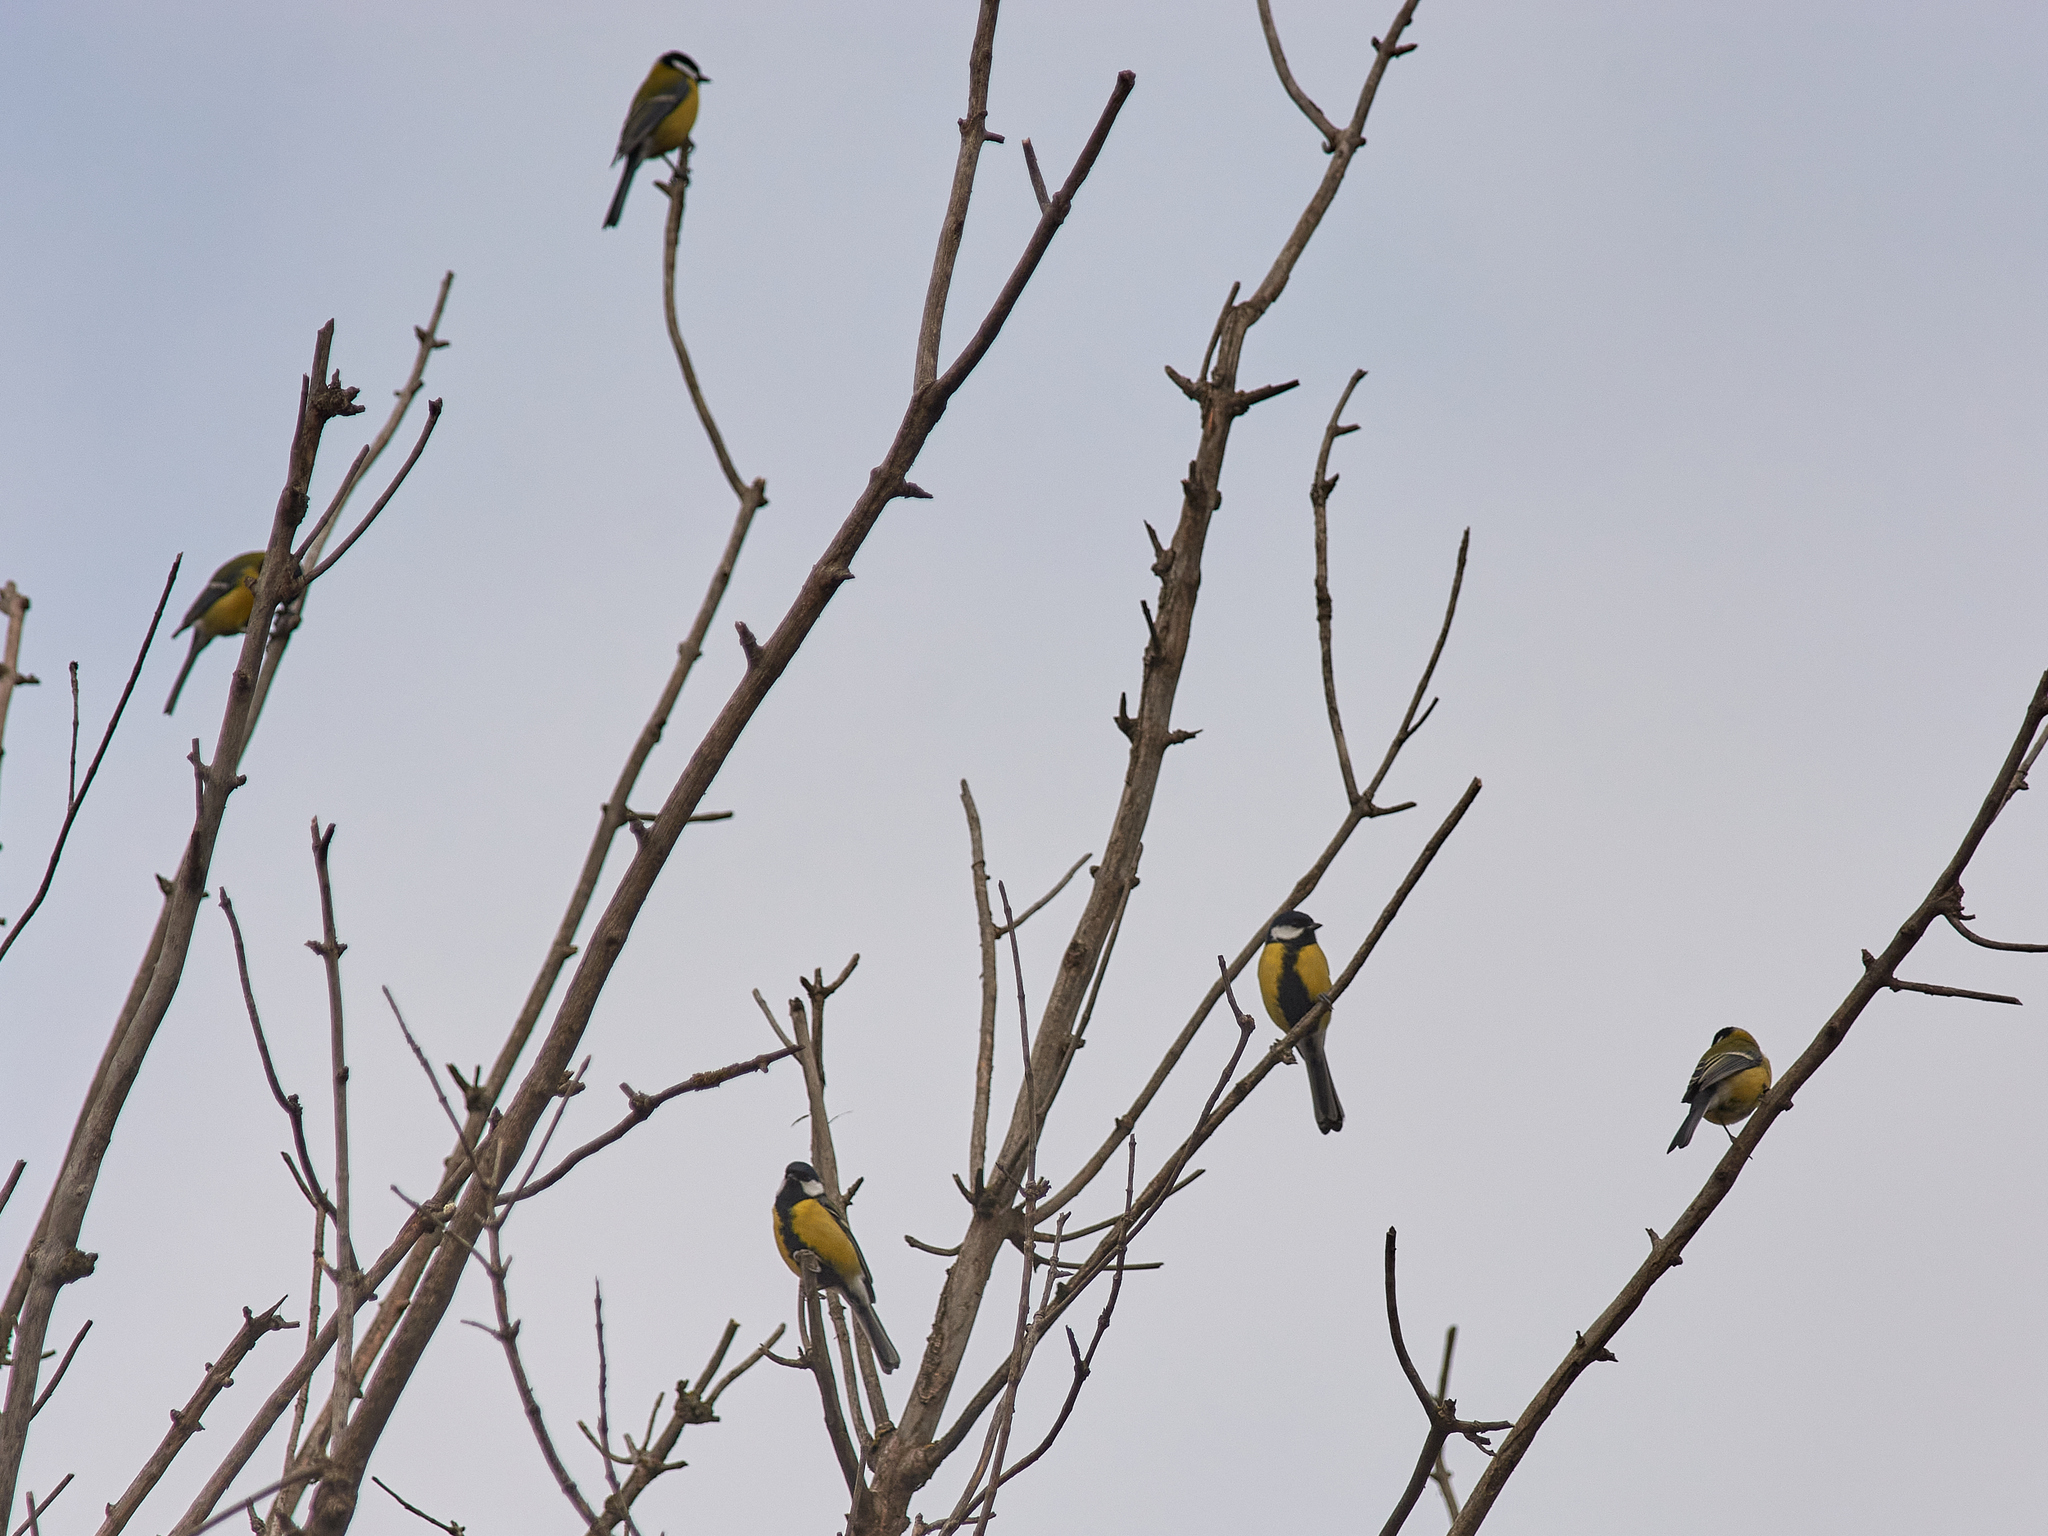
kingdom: Animalia
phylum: Chordata
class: Aves
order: Passeriformes
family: Paridae
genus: Parus
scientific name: Parus major
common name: Great tit
